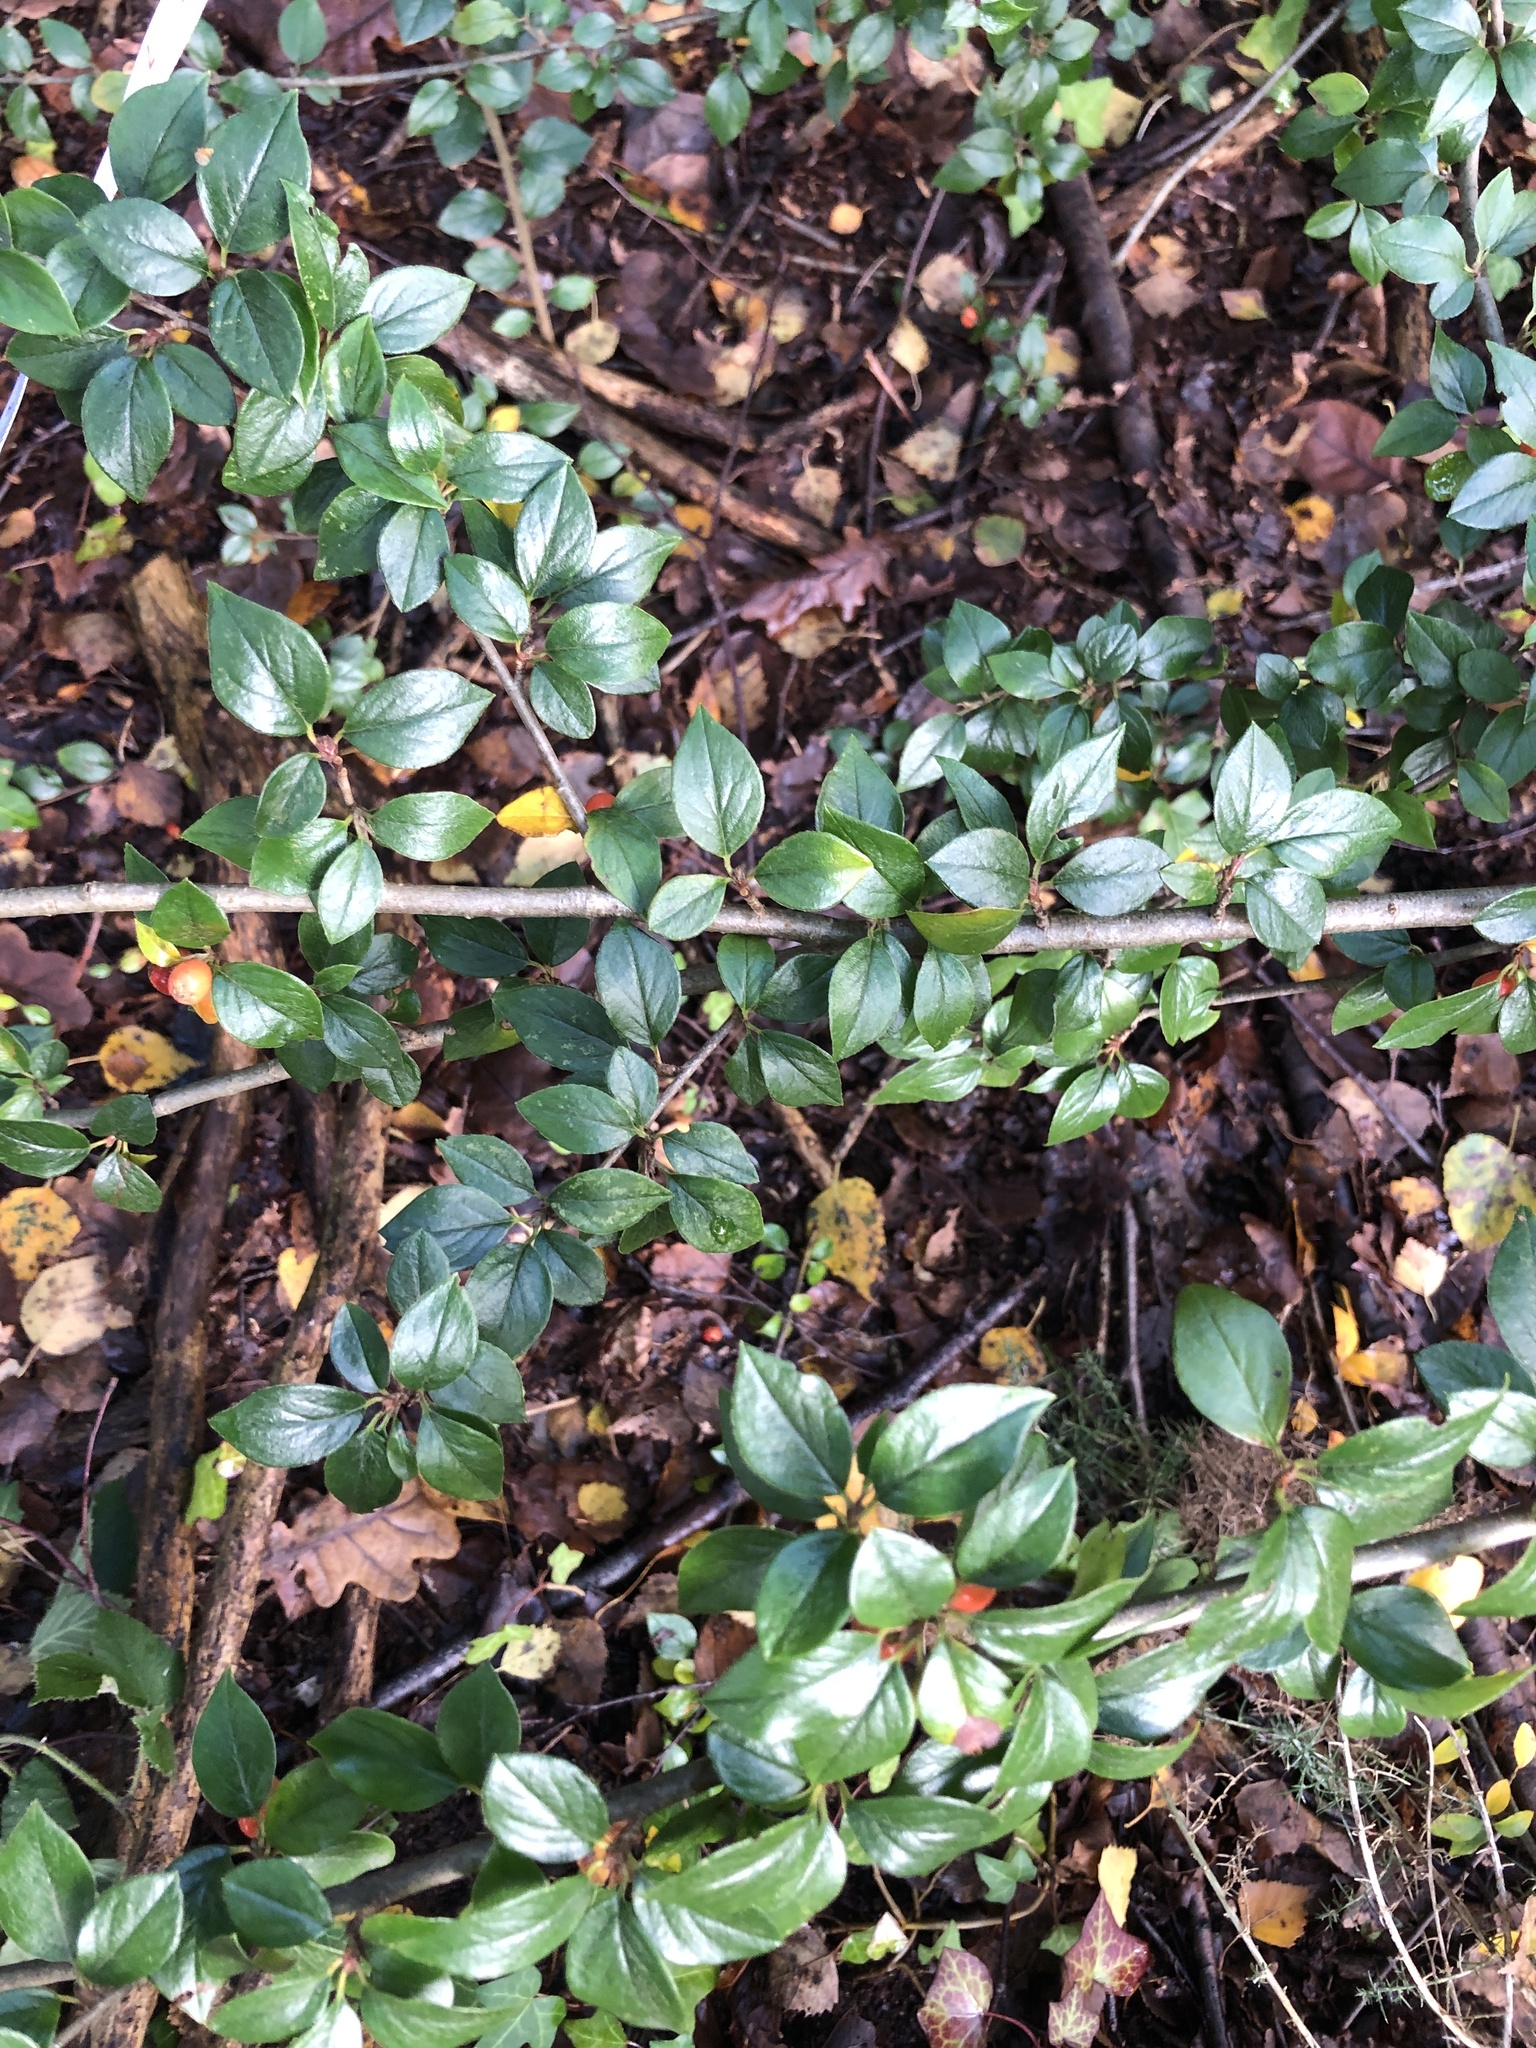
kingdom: Plantae
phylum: Tracheophyta
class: Magnoliopsida
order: Rosales
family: Rosaceae
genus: Cotoneaster
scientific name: Cotoneaster simonsii
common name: Himalayan cotoneaster
